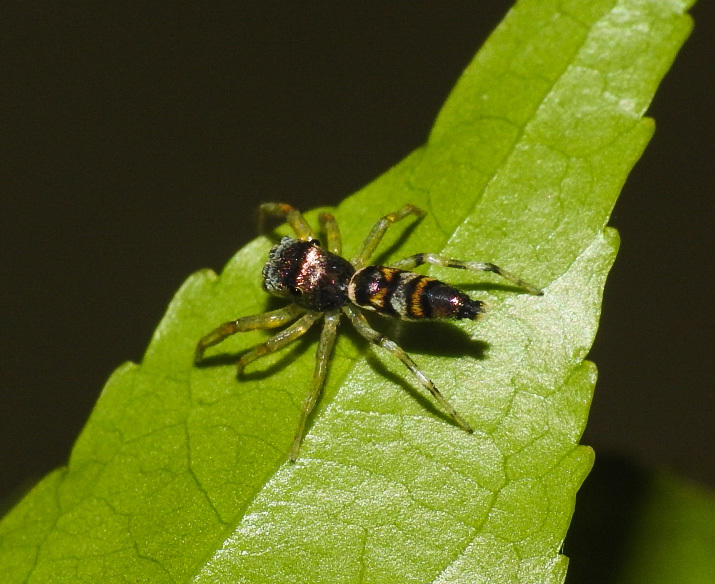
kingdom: Animalia
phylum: Arthropoda
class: Arachnida
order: Araneae
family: Salticidae
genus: Chrysilla
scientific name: Chrysilla acerosa
